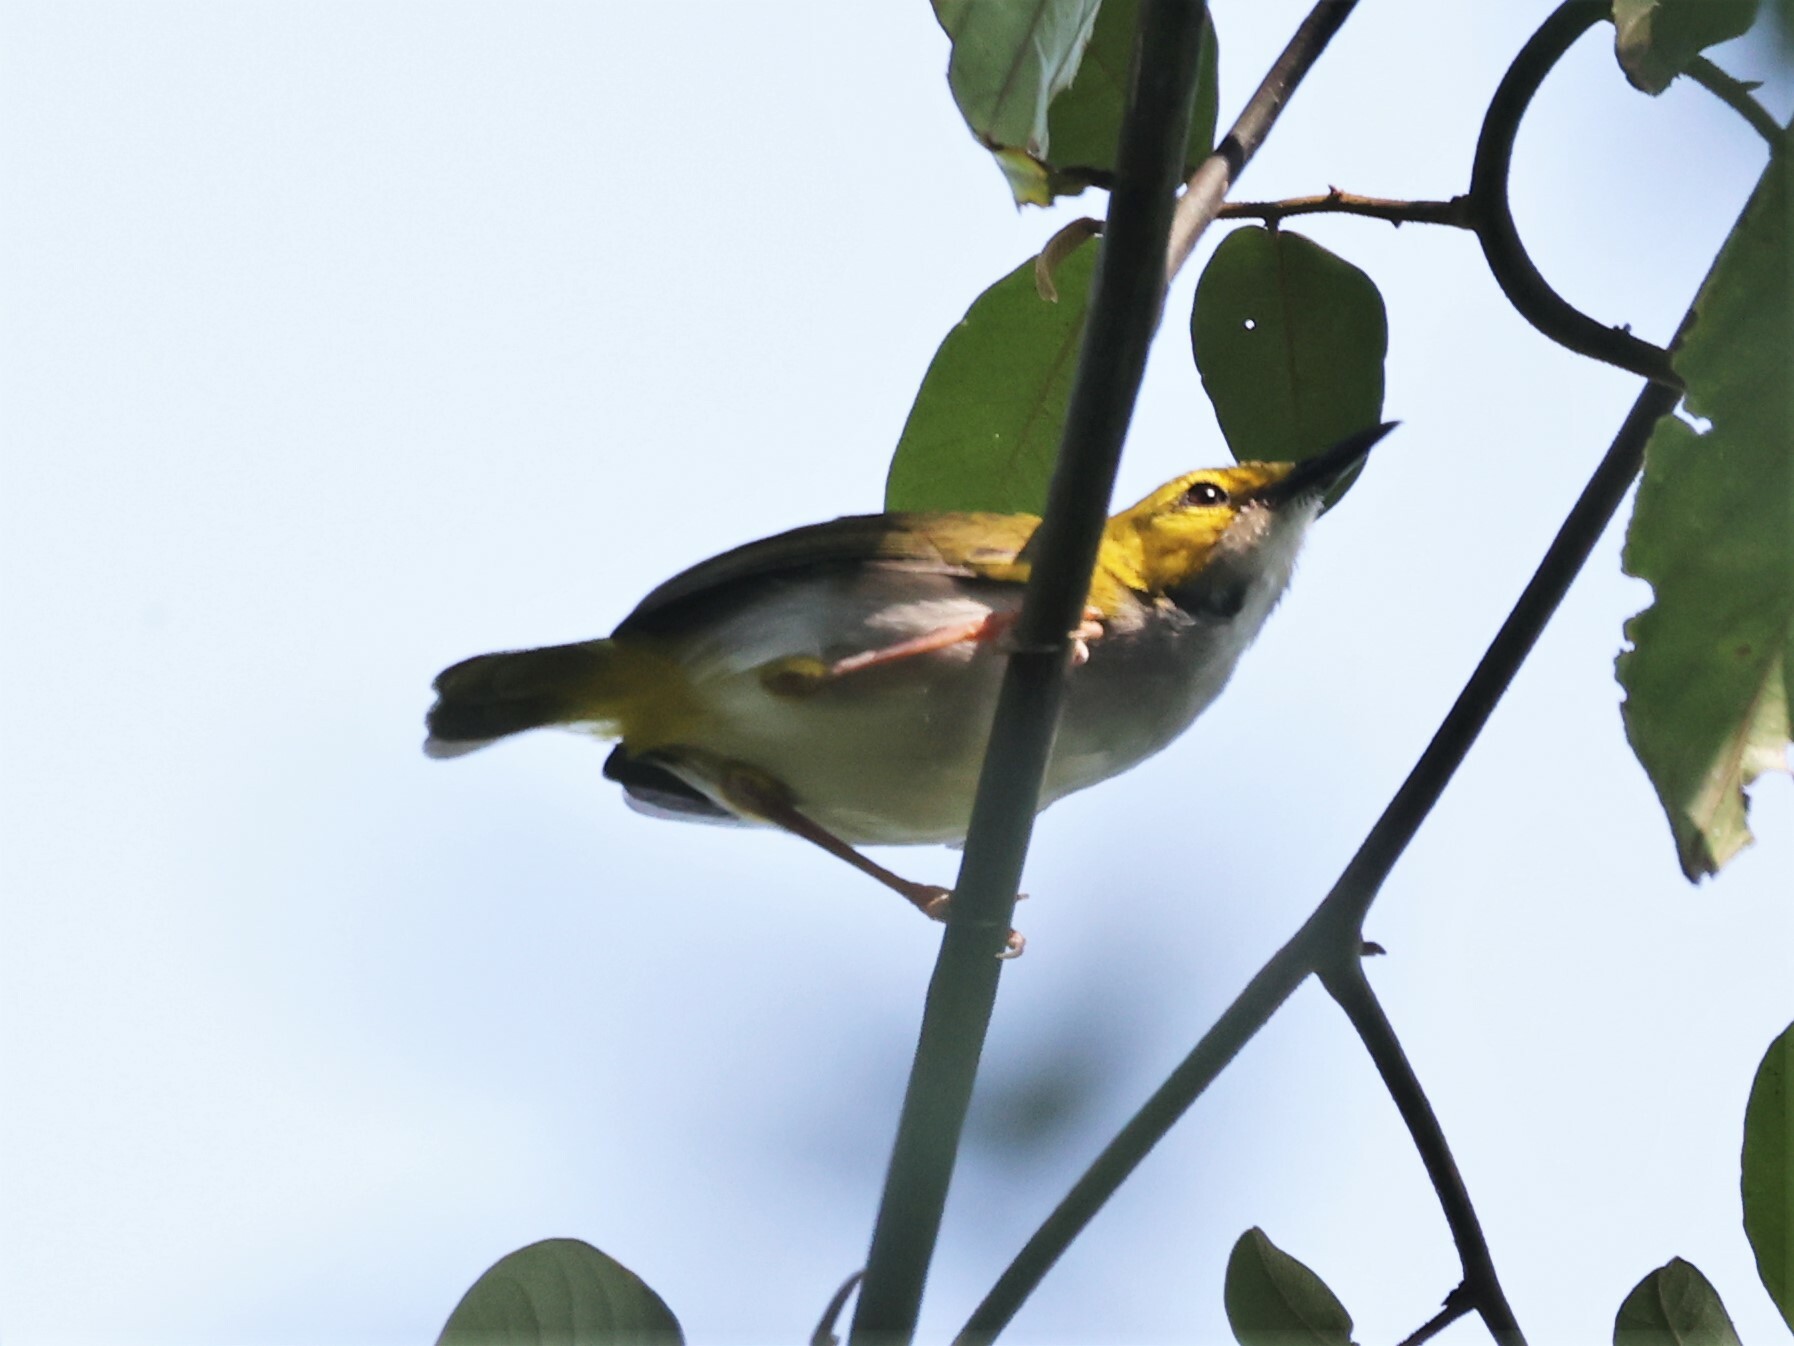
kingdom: Animalia
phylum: Chordata
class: Aves
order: Passeriformes
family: Cisticolidae
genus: Camaroptera
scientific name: Camaroptera superciliaris
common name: Yellow-browed camaroptera
